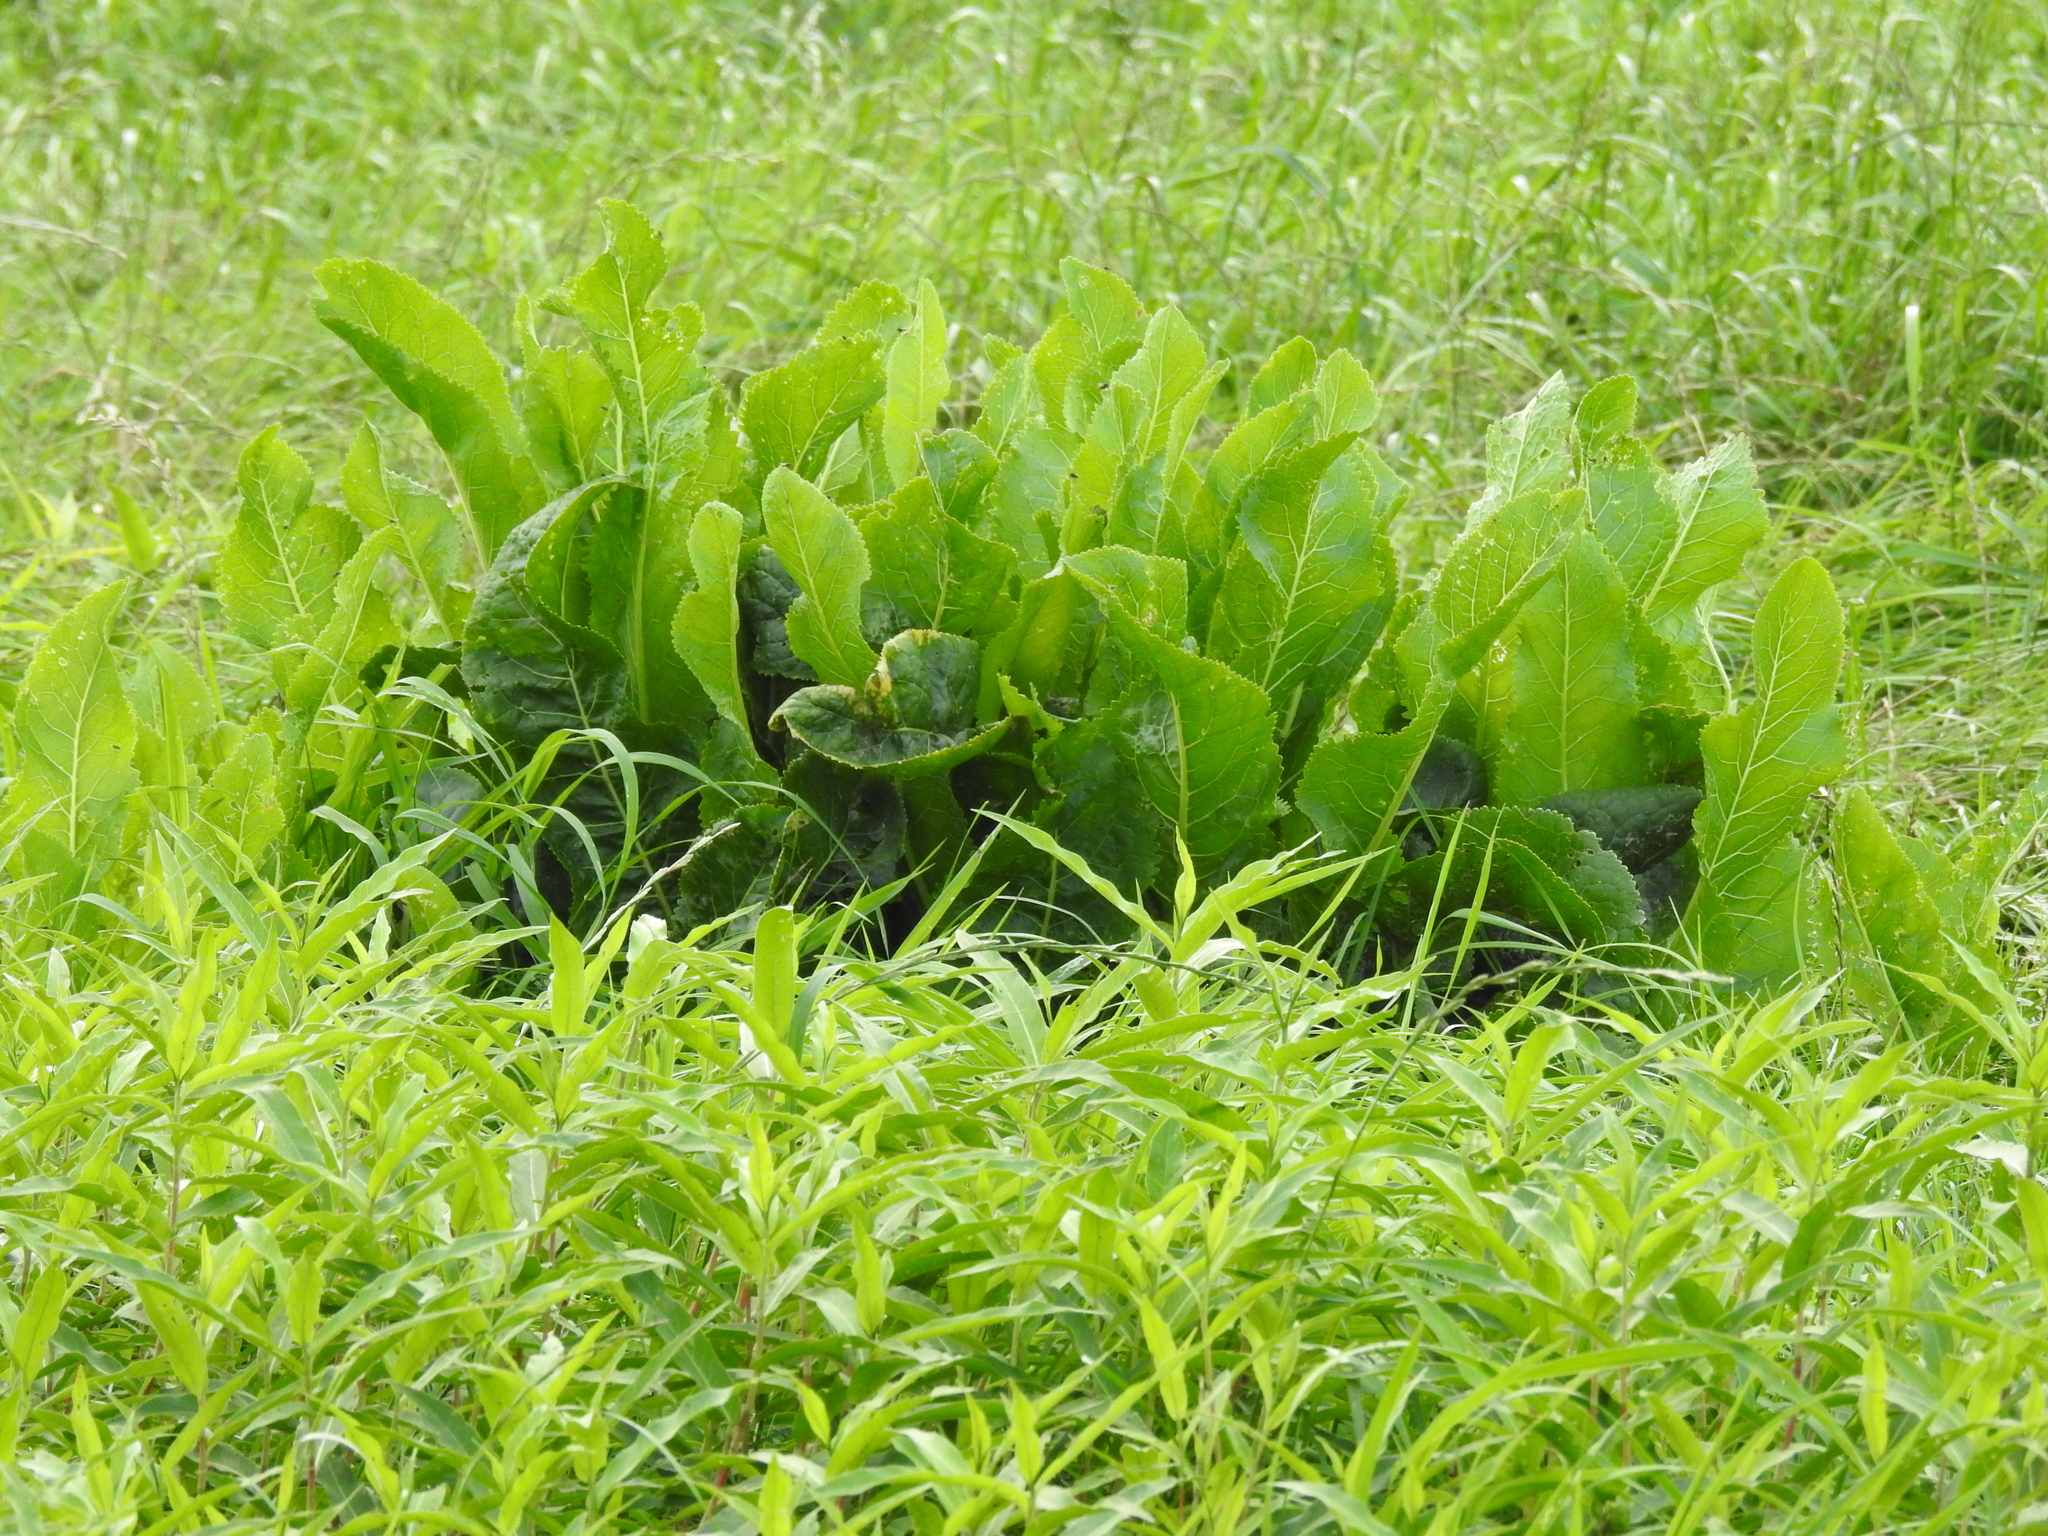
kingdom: Plantae
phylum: Tracheophyta
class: Magnoliopsida
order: Brassicales
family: Brassicaceae
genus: Armoracia
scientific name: Armoracia rusticana
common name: Horseradish
